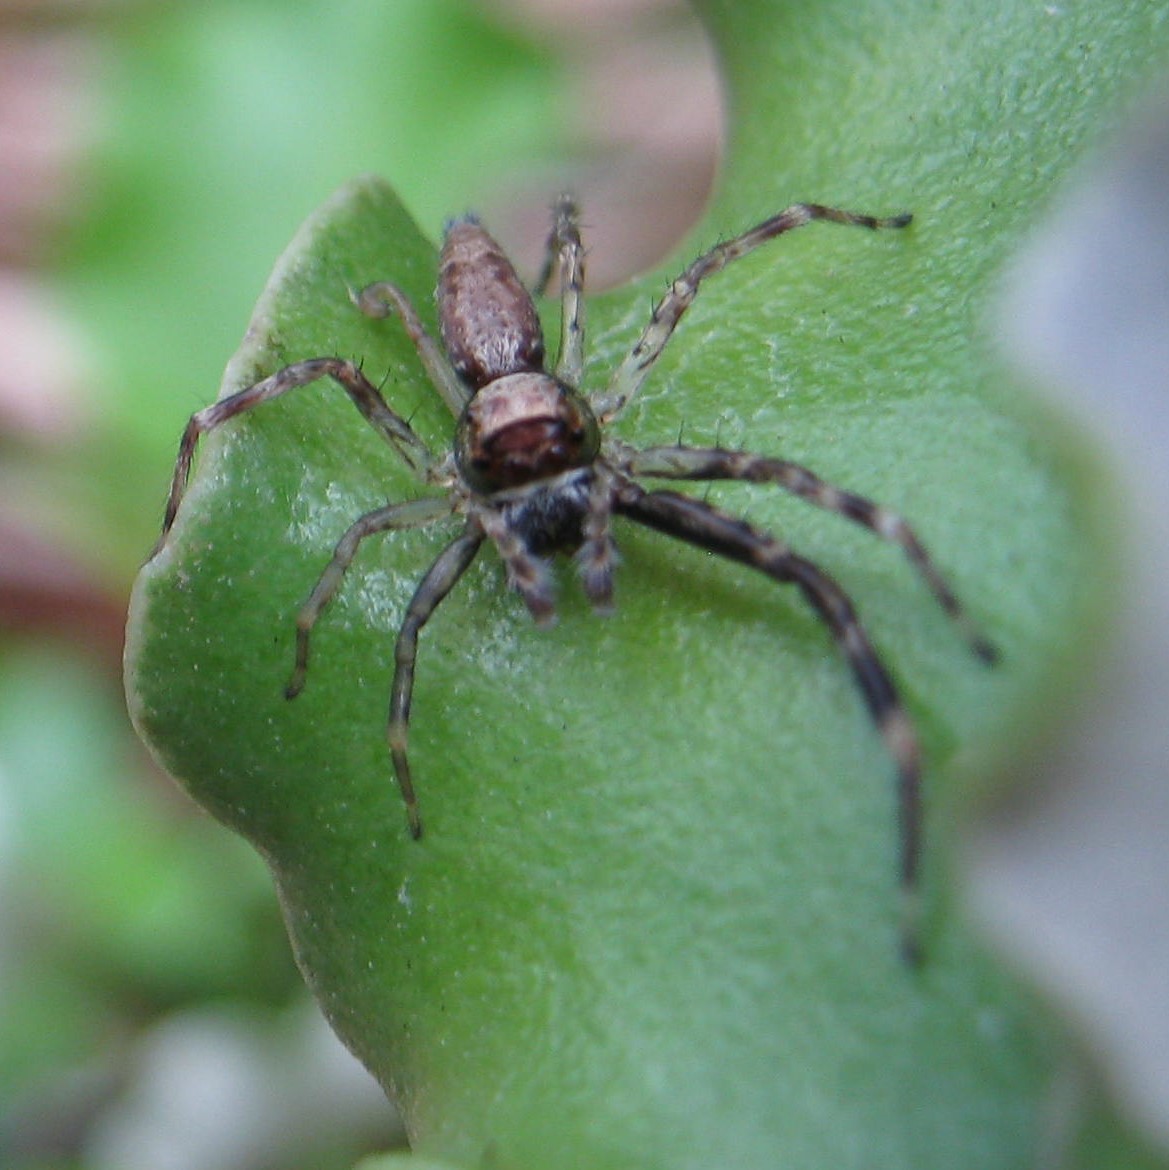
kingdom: Animalia
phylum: Arthropoda
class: Arachnida
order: Araneae
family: Salticidae
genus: Helpis
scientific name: Helpis minitabunda
